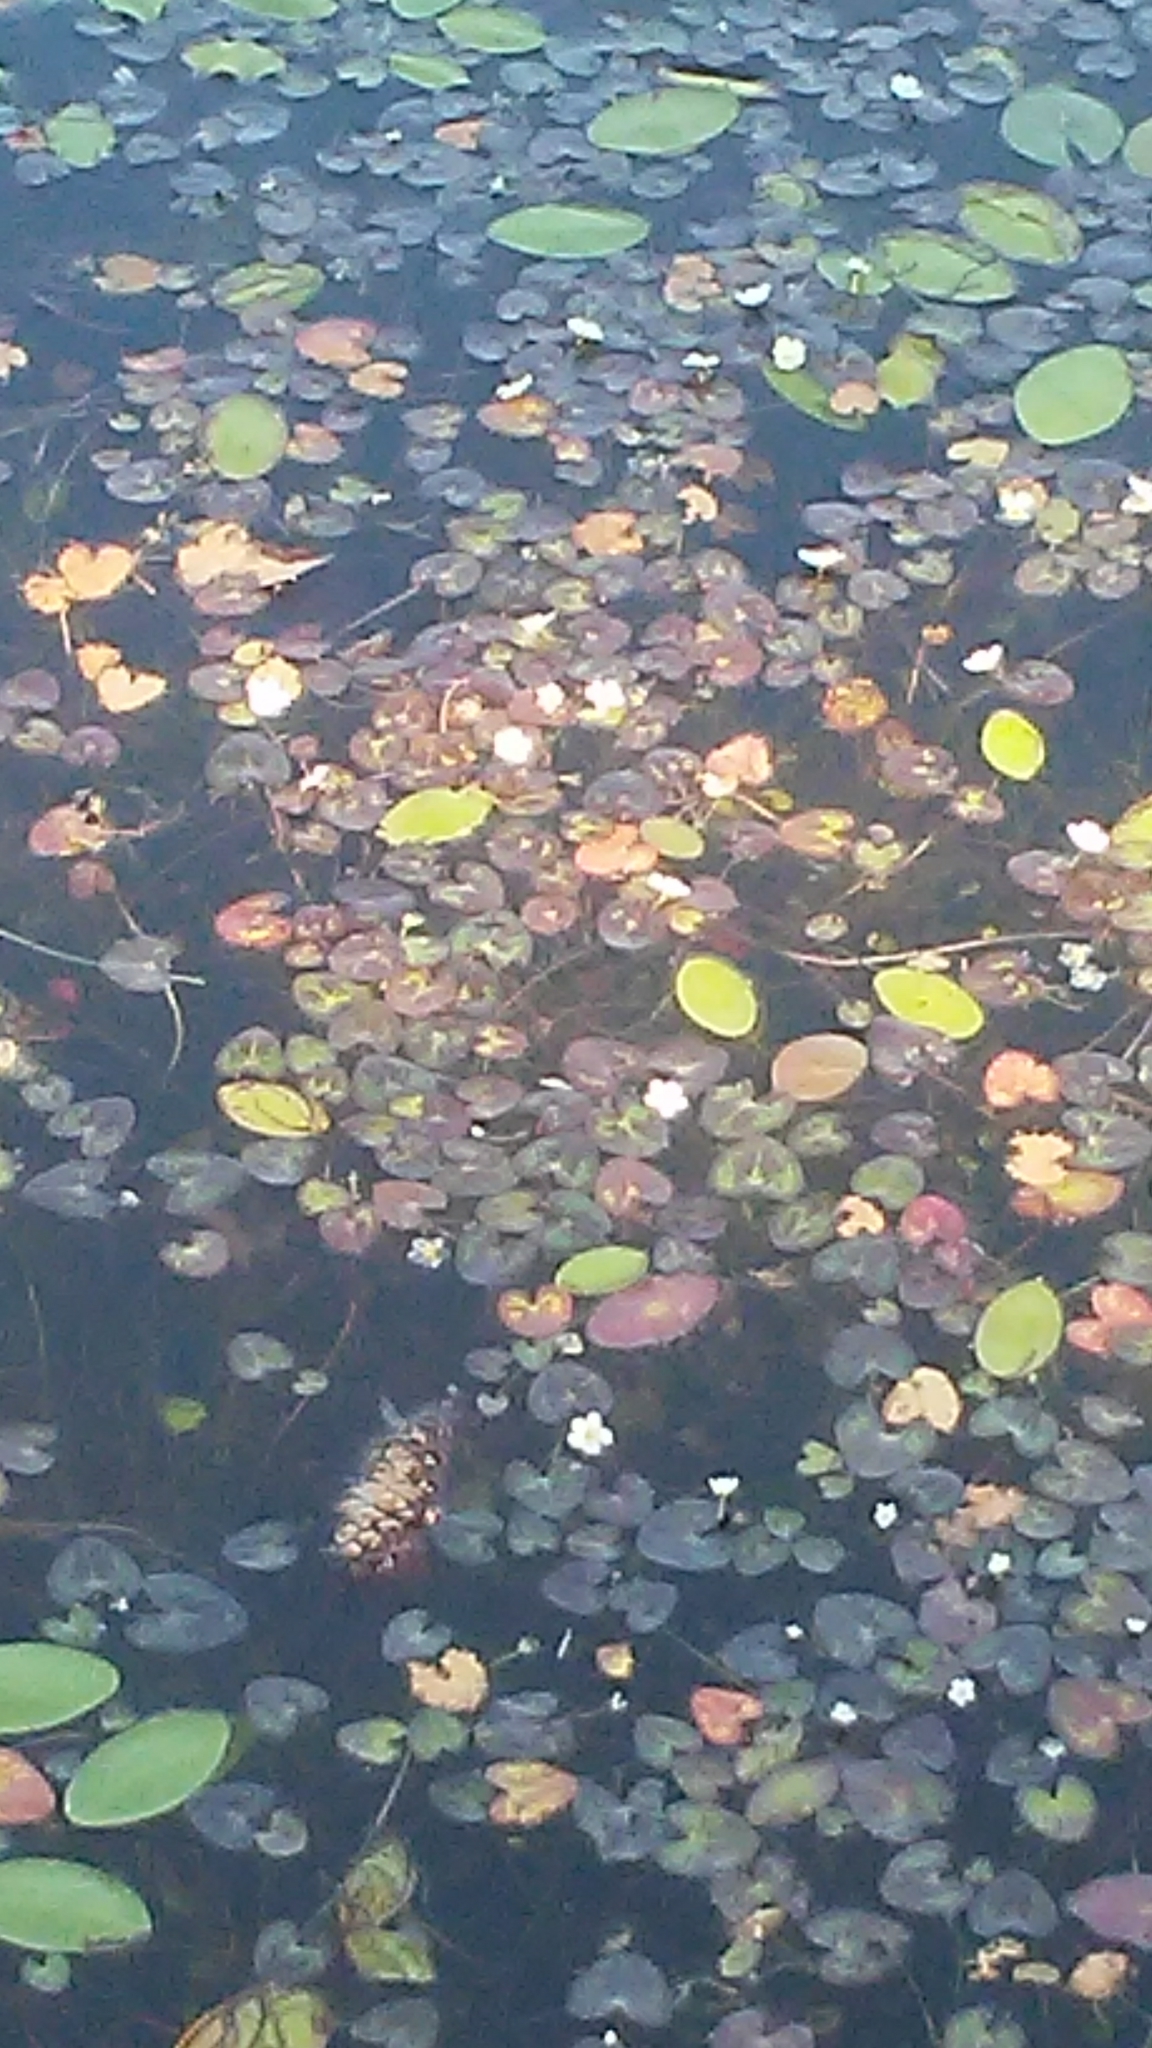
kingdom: Plantae
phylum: Tracheophyta
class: Magnoliopsida
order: Nymphaeales
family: Cabombaceae
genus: Brasenia
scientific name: Brasenia schreberi
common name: Water-shield
